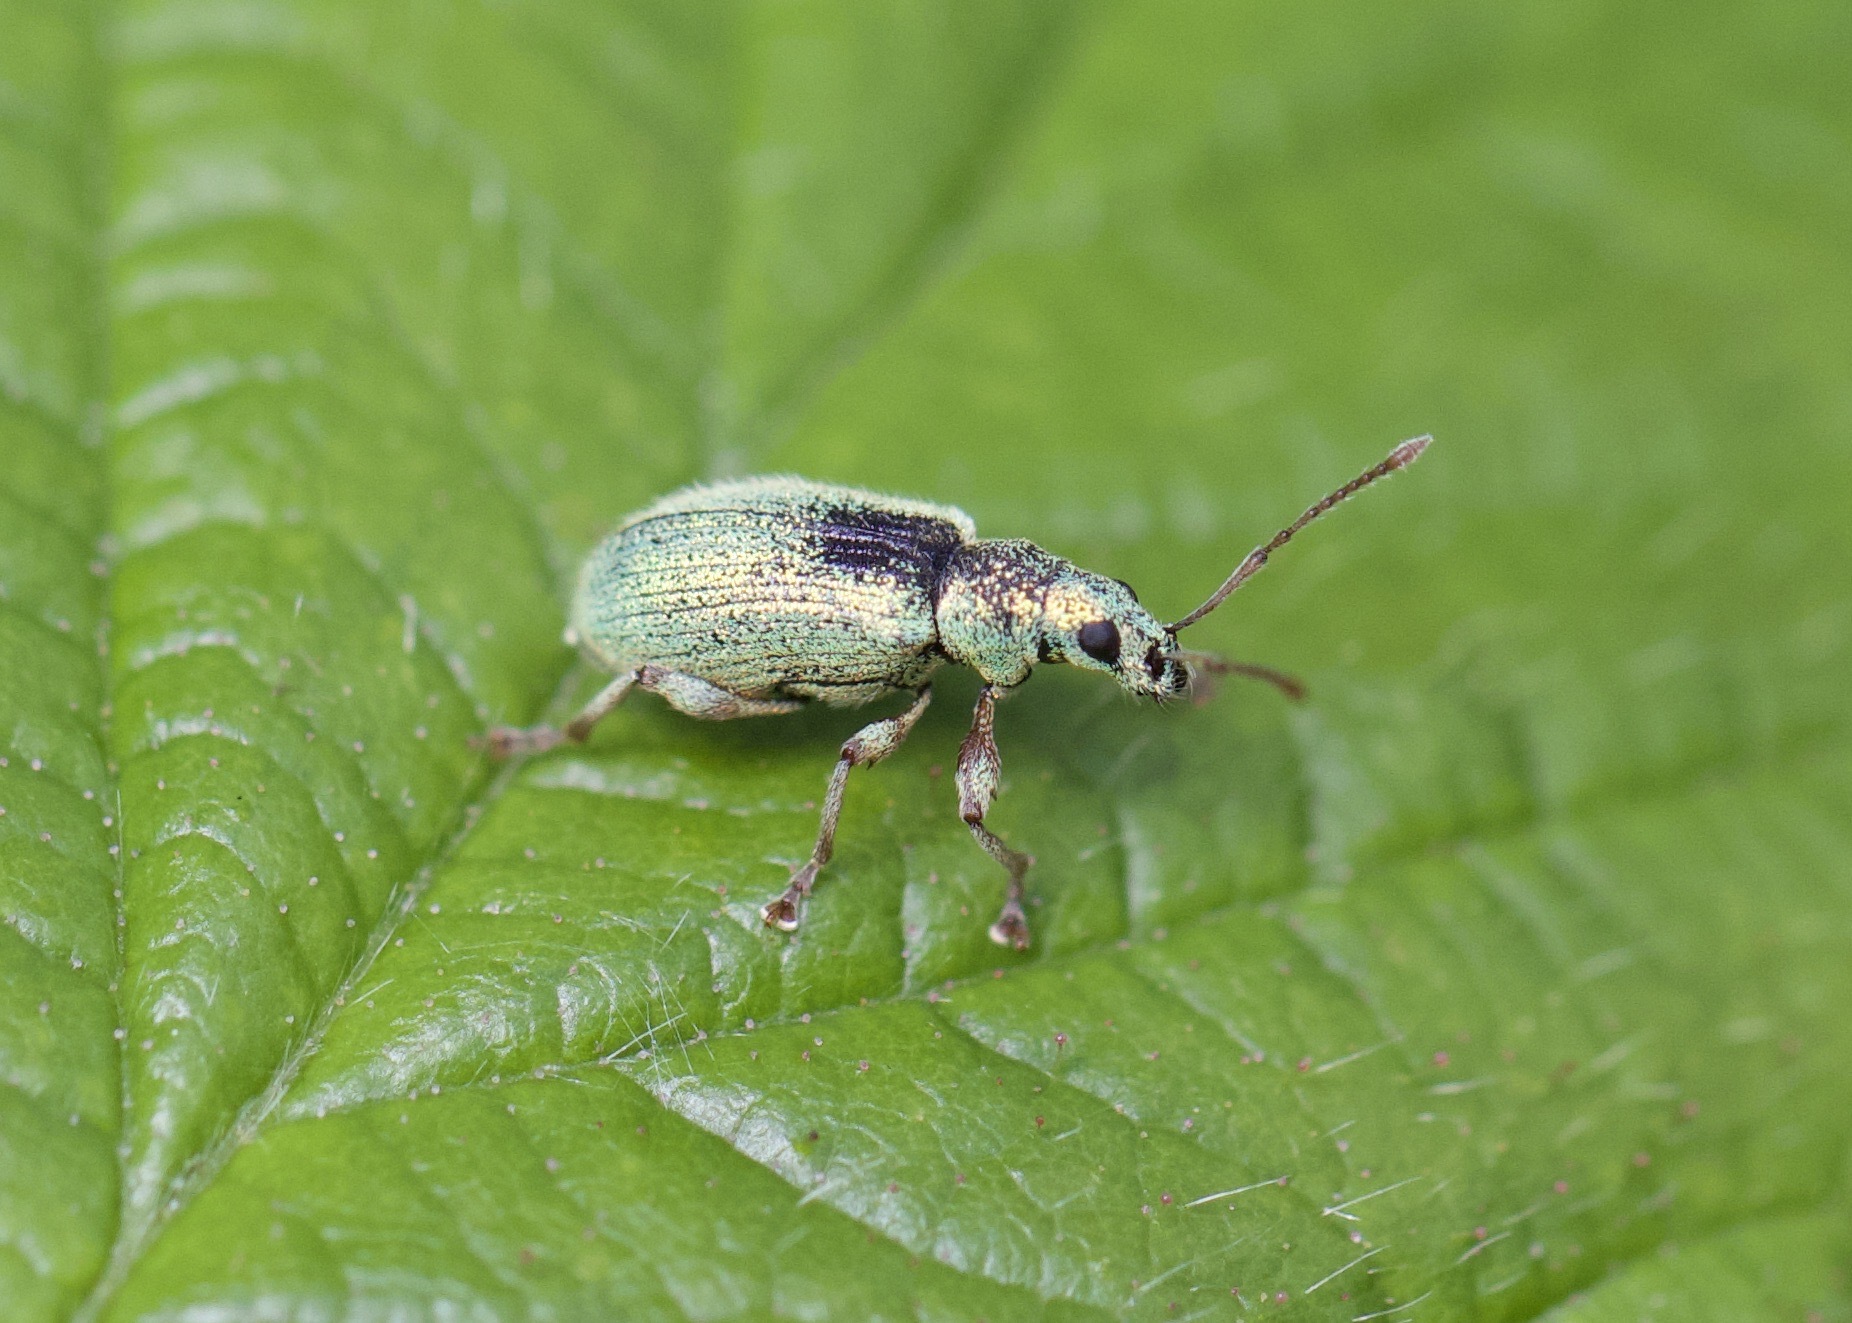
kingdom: Animalia
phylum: Arthropoda
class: Insecta
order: Coleoptera
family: Curculionidae
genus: Phyllobius
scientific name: Phyllobius argentatus
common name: Silver-green leaf weevil
